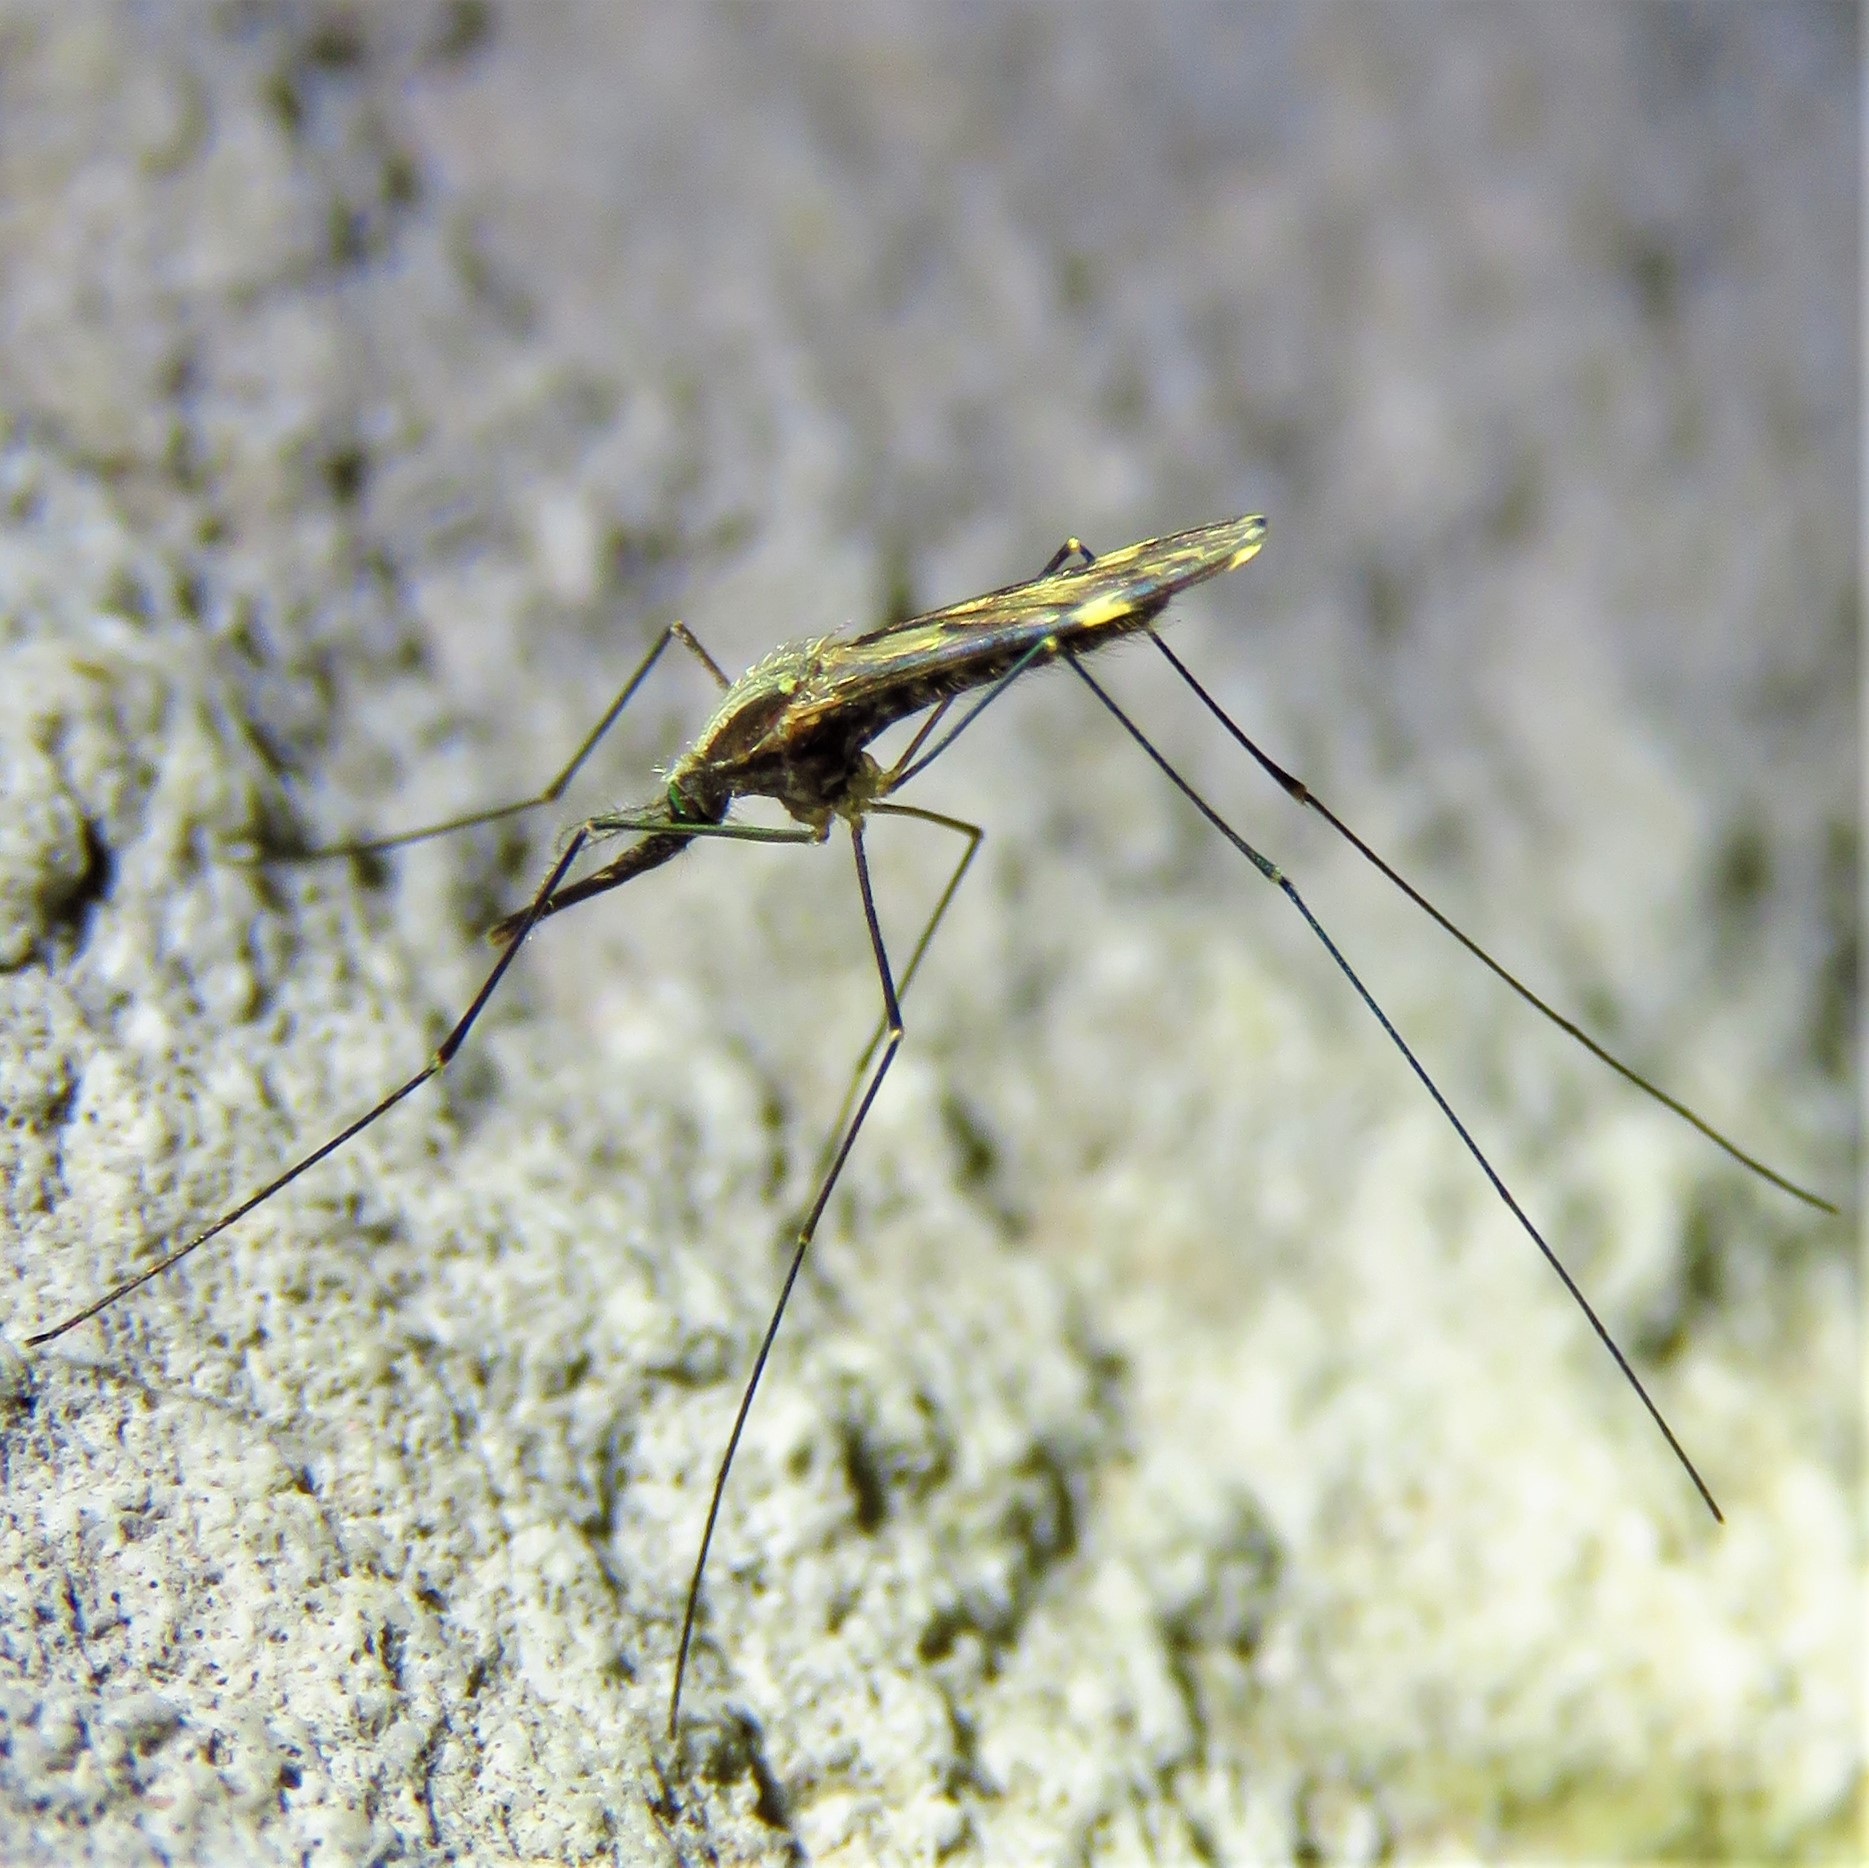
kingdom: Animalia
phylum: Arthropoda
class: Insecta
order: Diptera
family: Culicidae
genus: Anopheles
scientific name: Anopheles punctipennis
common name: Woodland malaria mosquito
